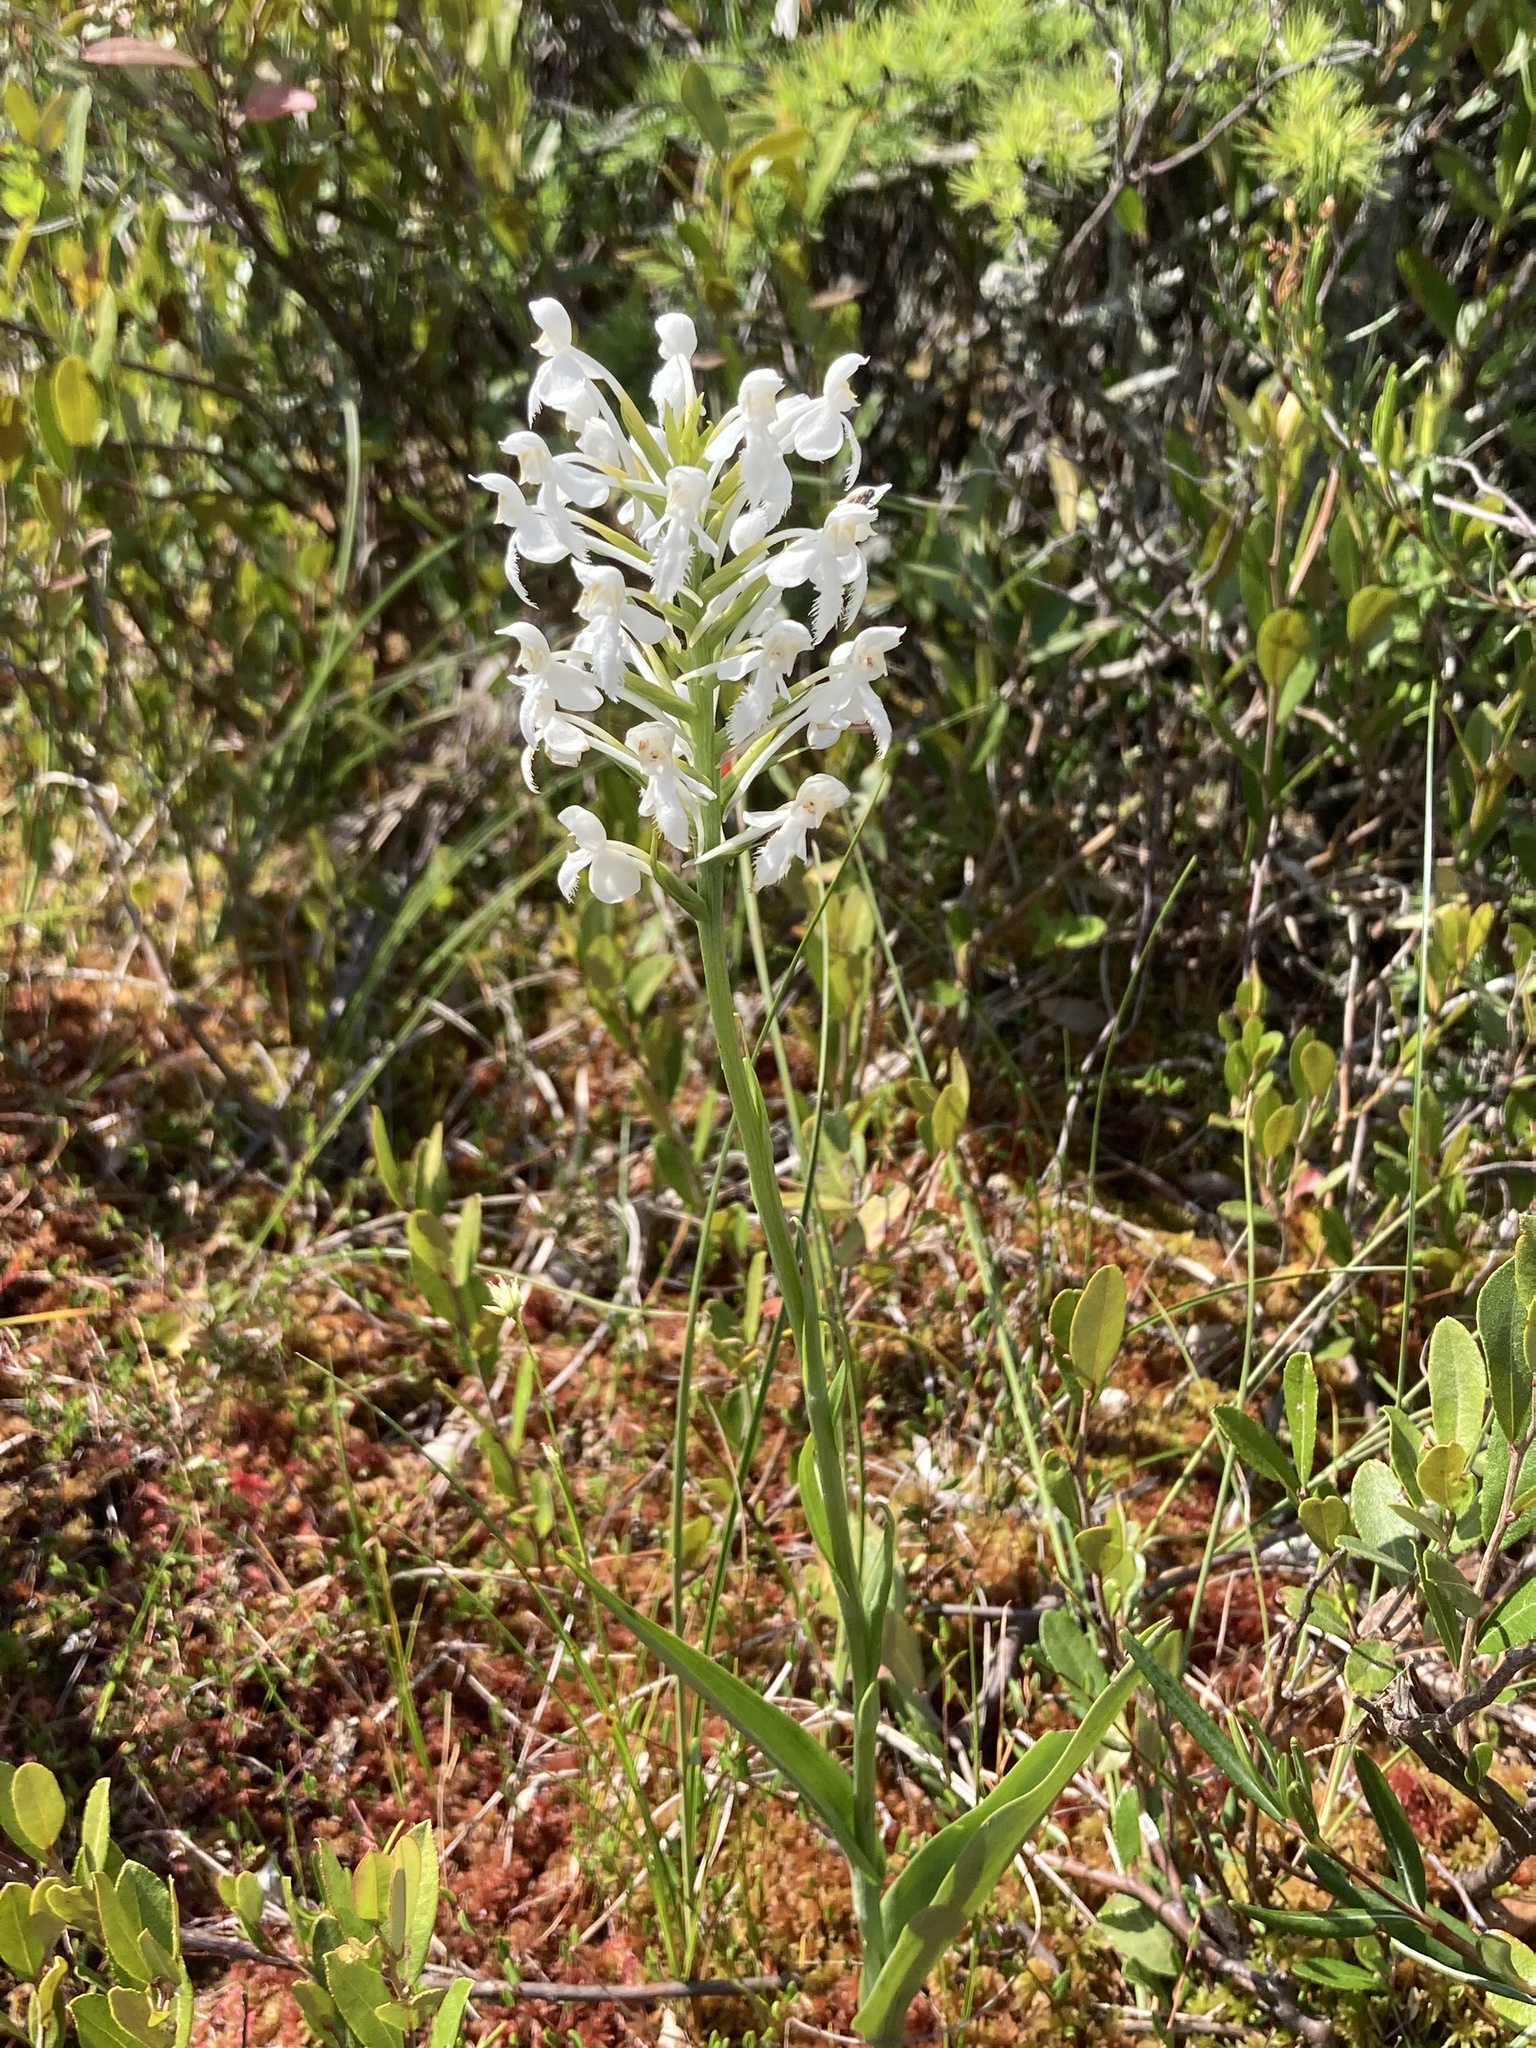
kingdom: Plantae
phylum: Tracheophyta
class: Liliopsida
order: Asparagales
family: Orchidaceae
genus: Platanthera
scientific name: Platanthera blephariglottis
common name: White fringed orchid
